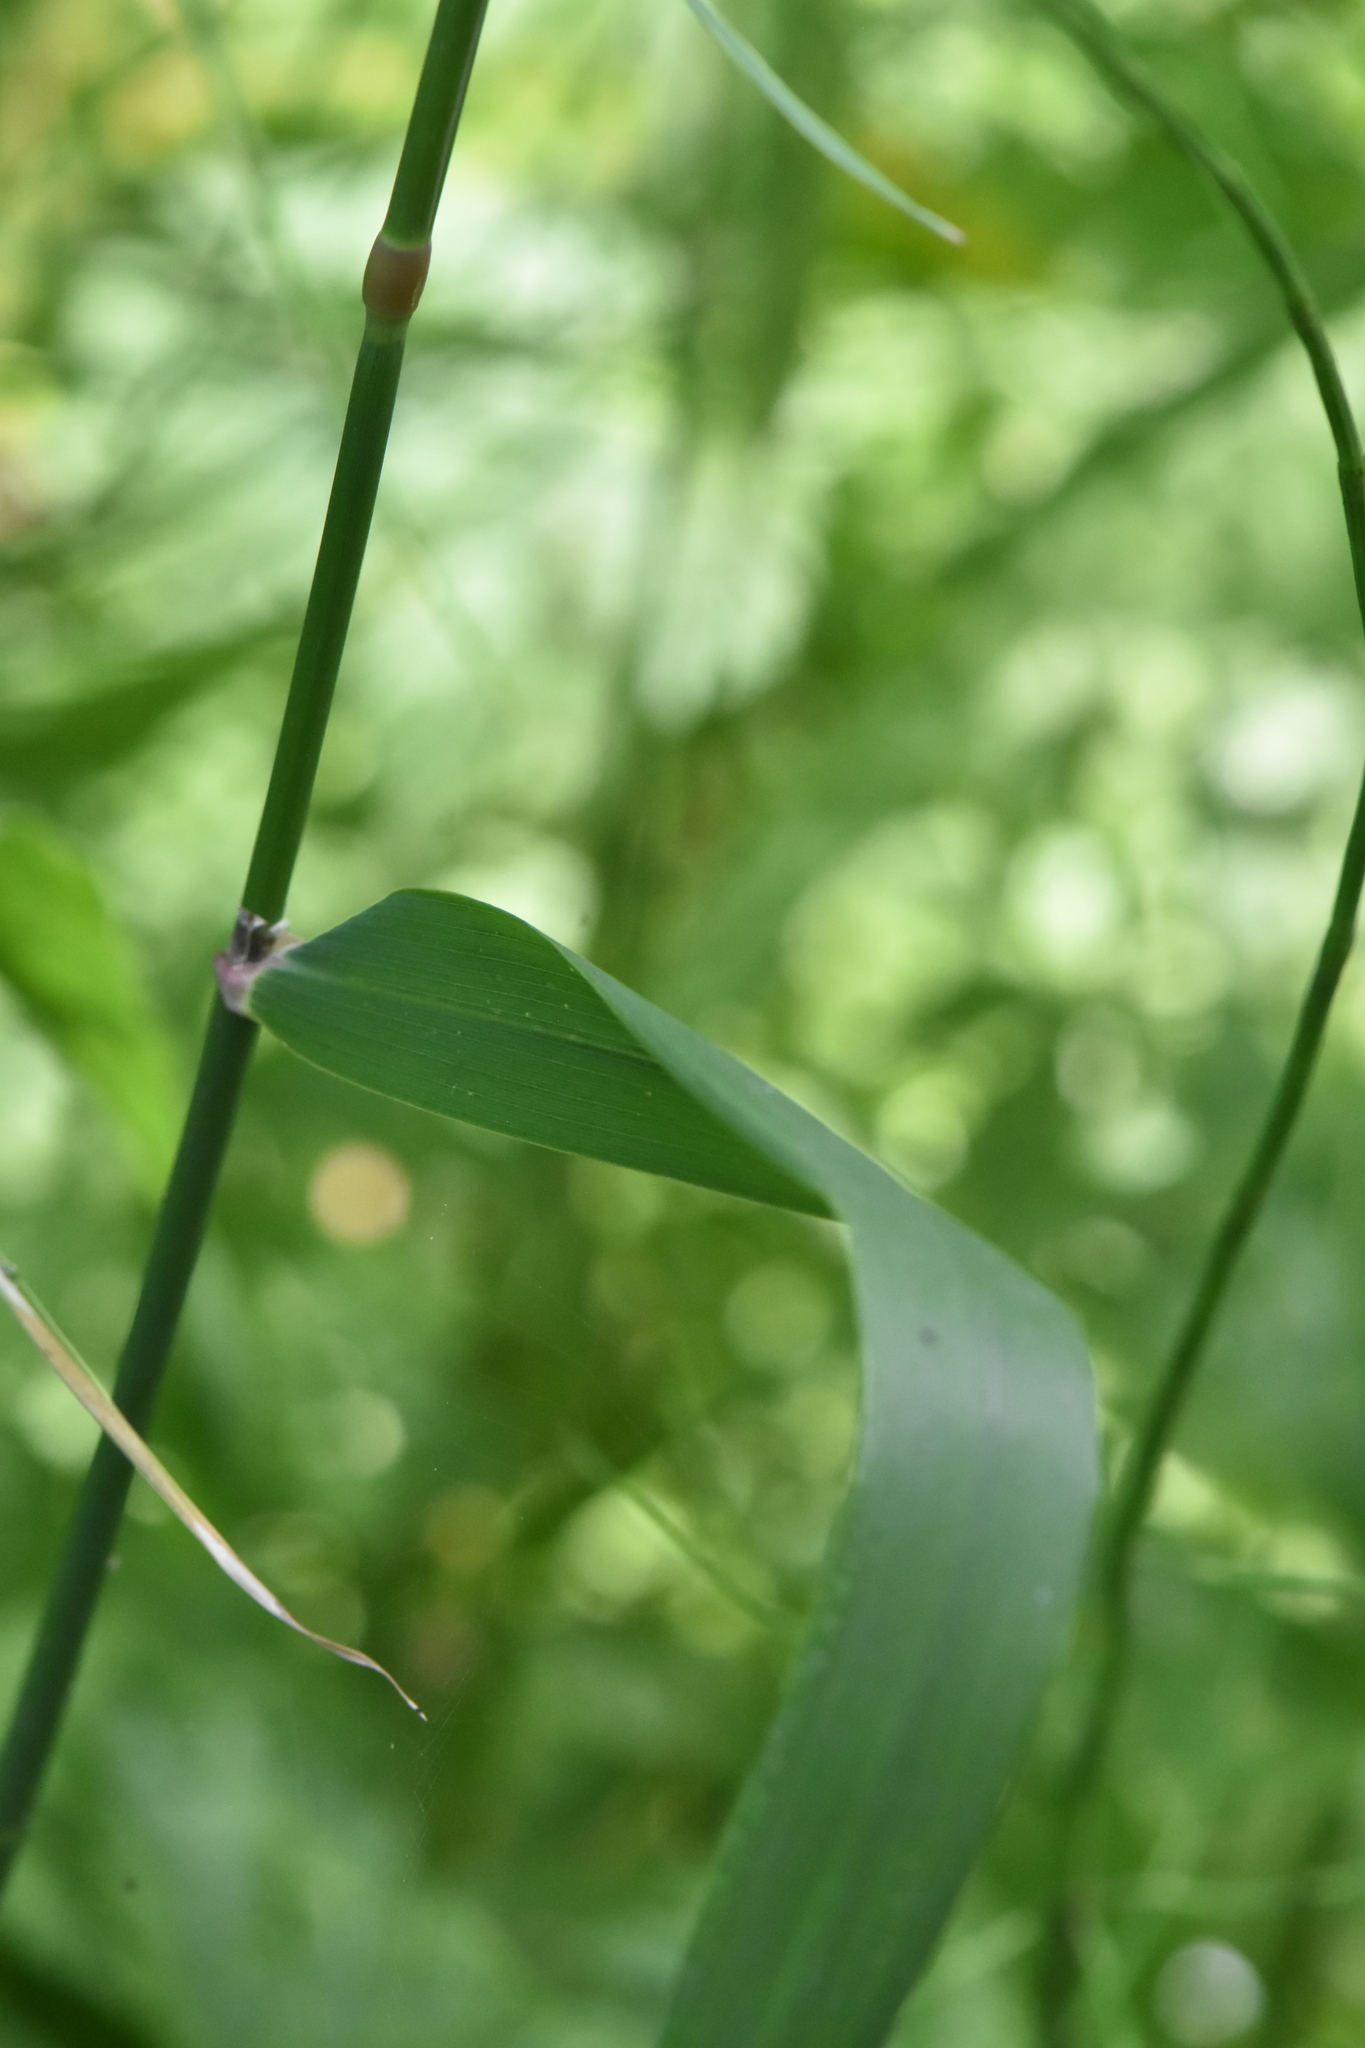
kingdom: Plantae
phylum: Tracheophyta
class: Liliopsida
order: Poales
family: Poaceae
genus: Phalaris
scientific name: Phalaris arundinacea
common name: Reed canary-grass
